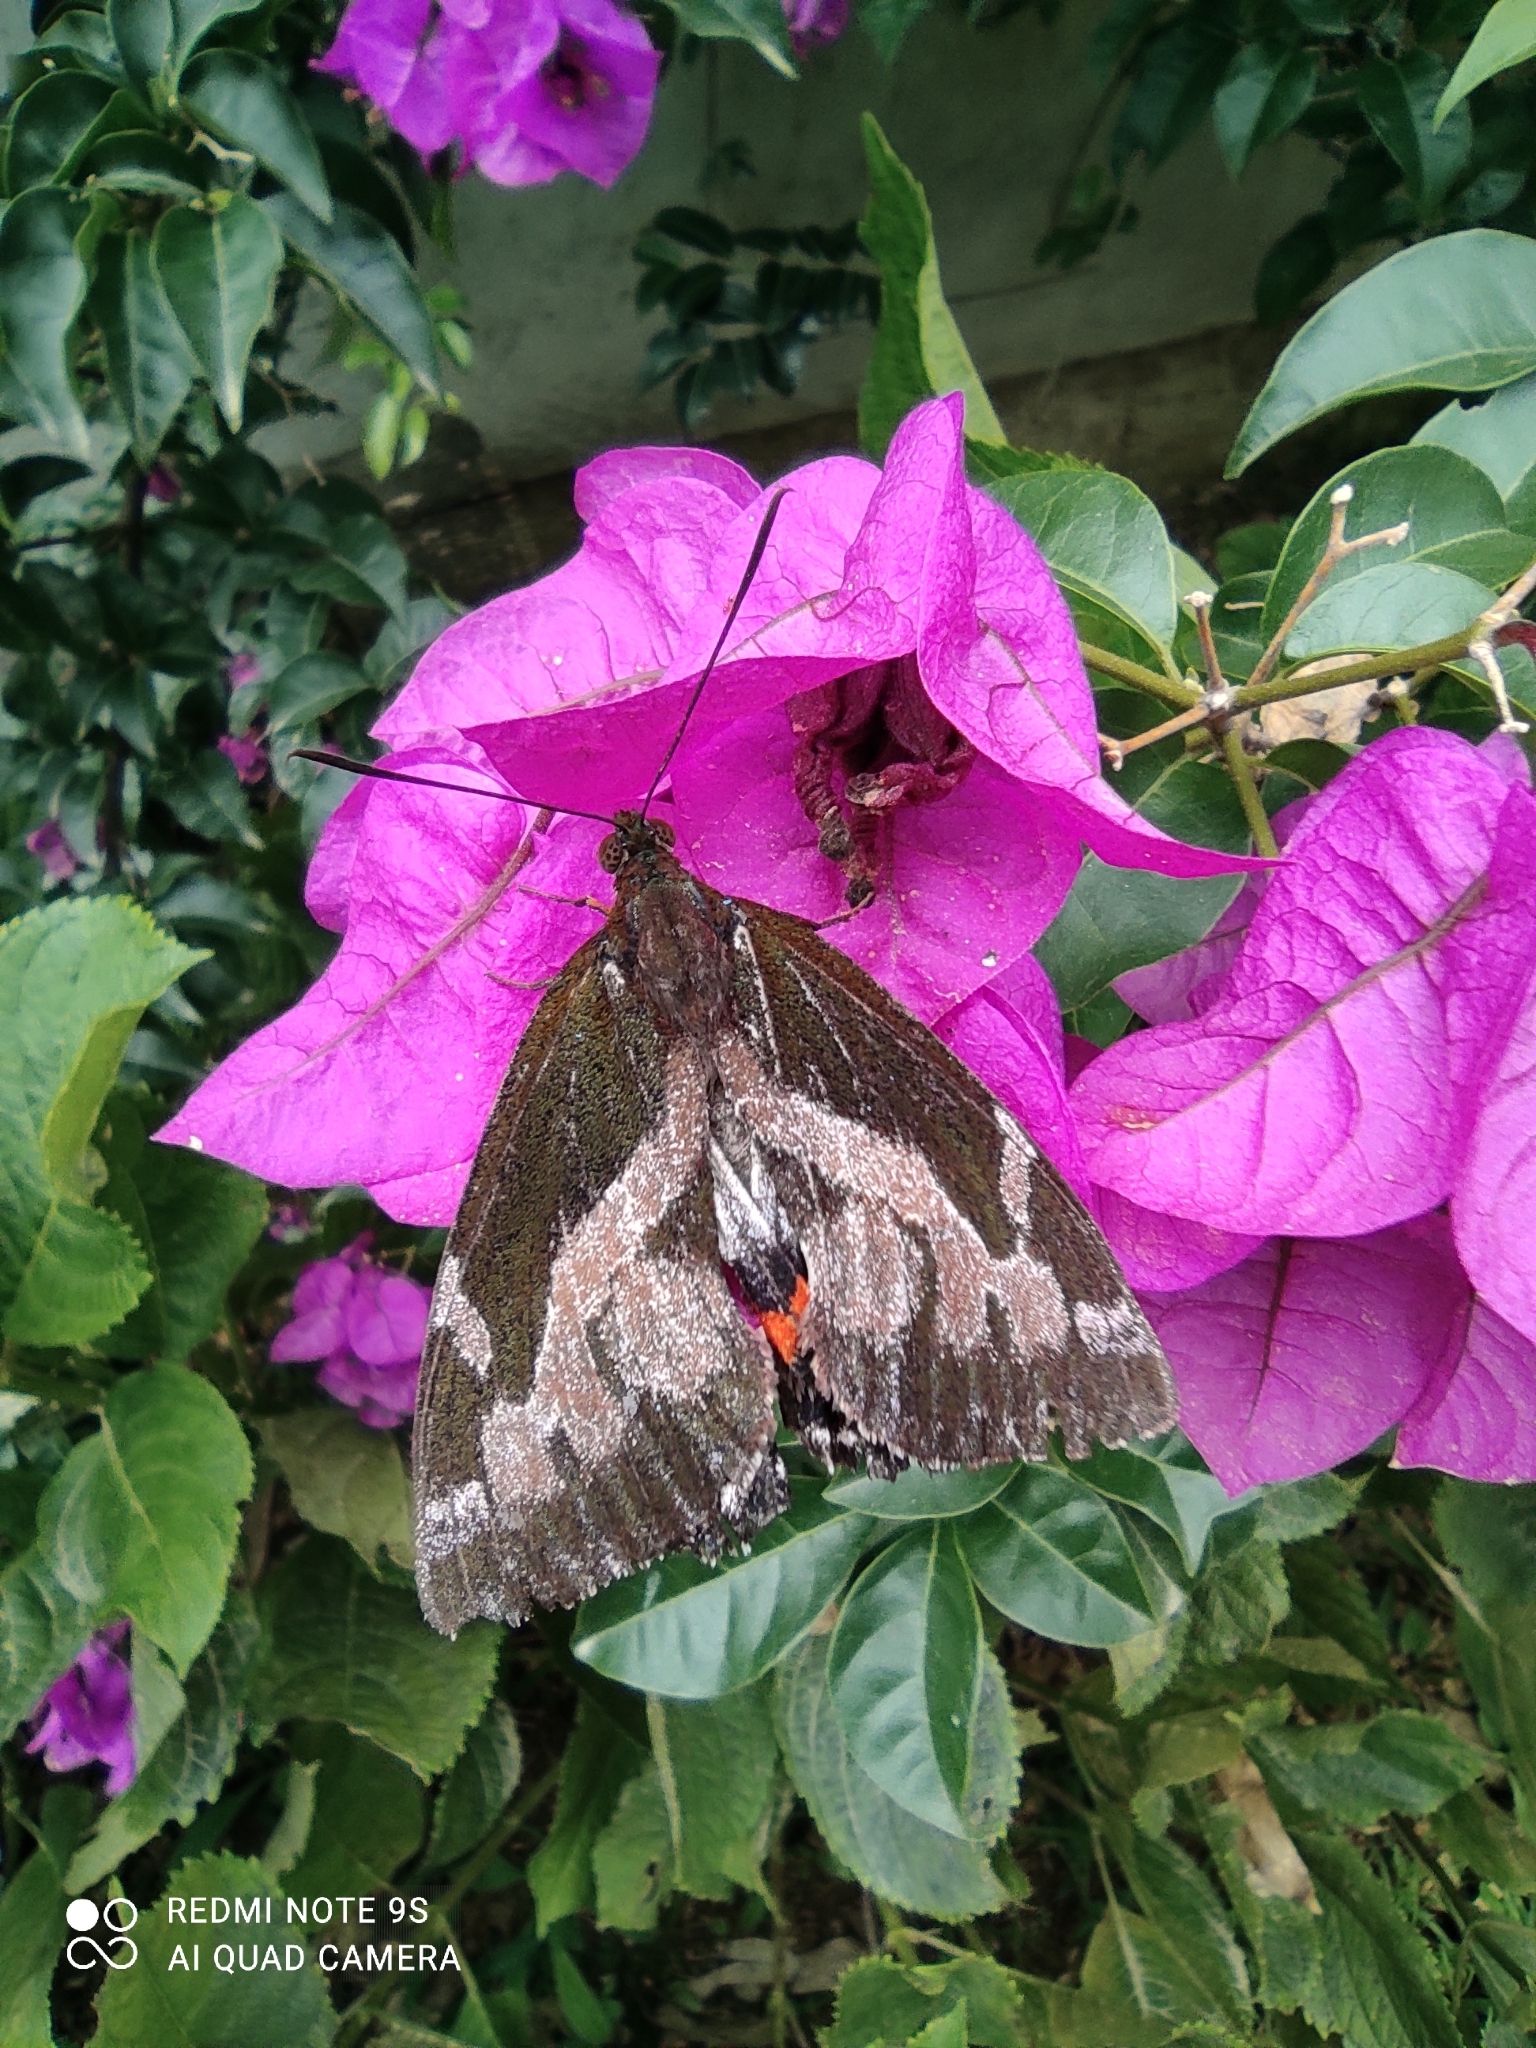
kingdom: Animalia
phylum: Arthropoda
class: Insecta
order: Lepidoptera
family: Castniidae
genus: Imara
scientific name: Imara pallasia
